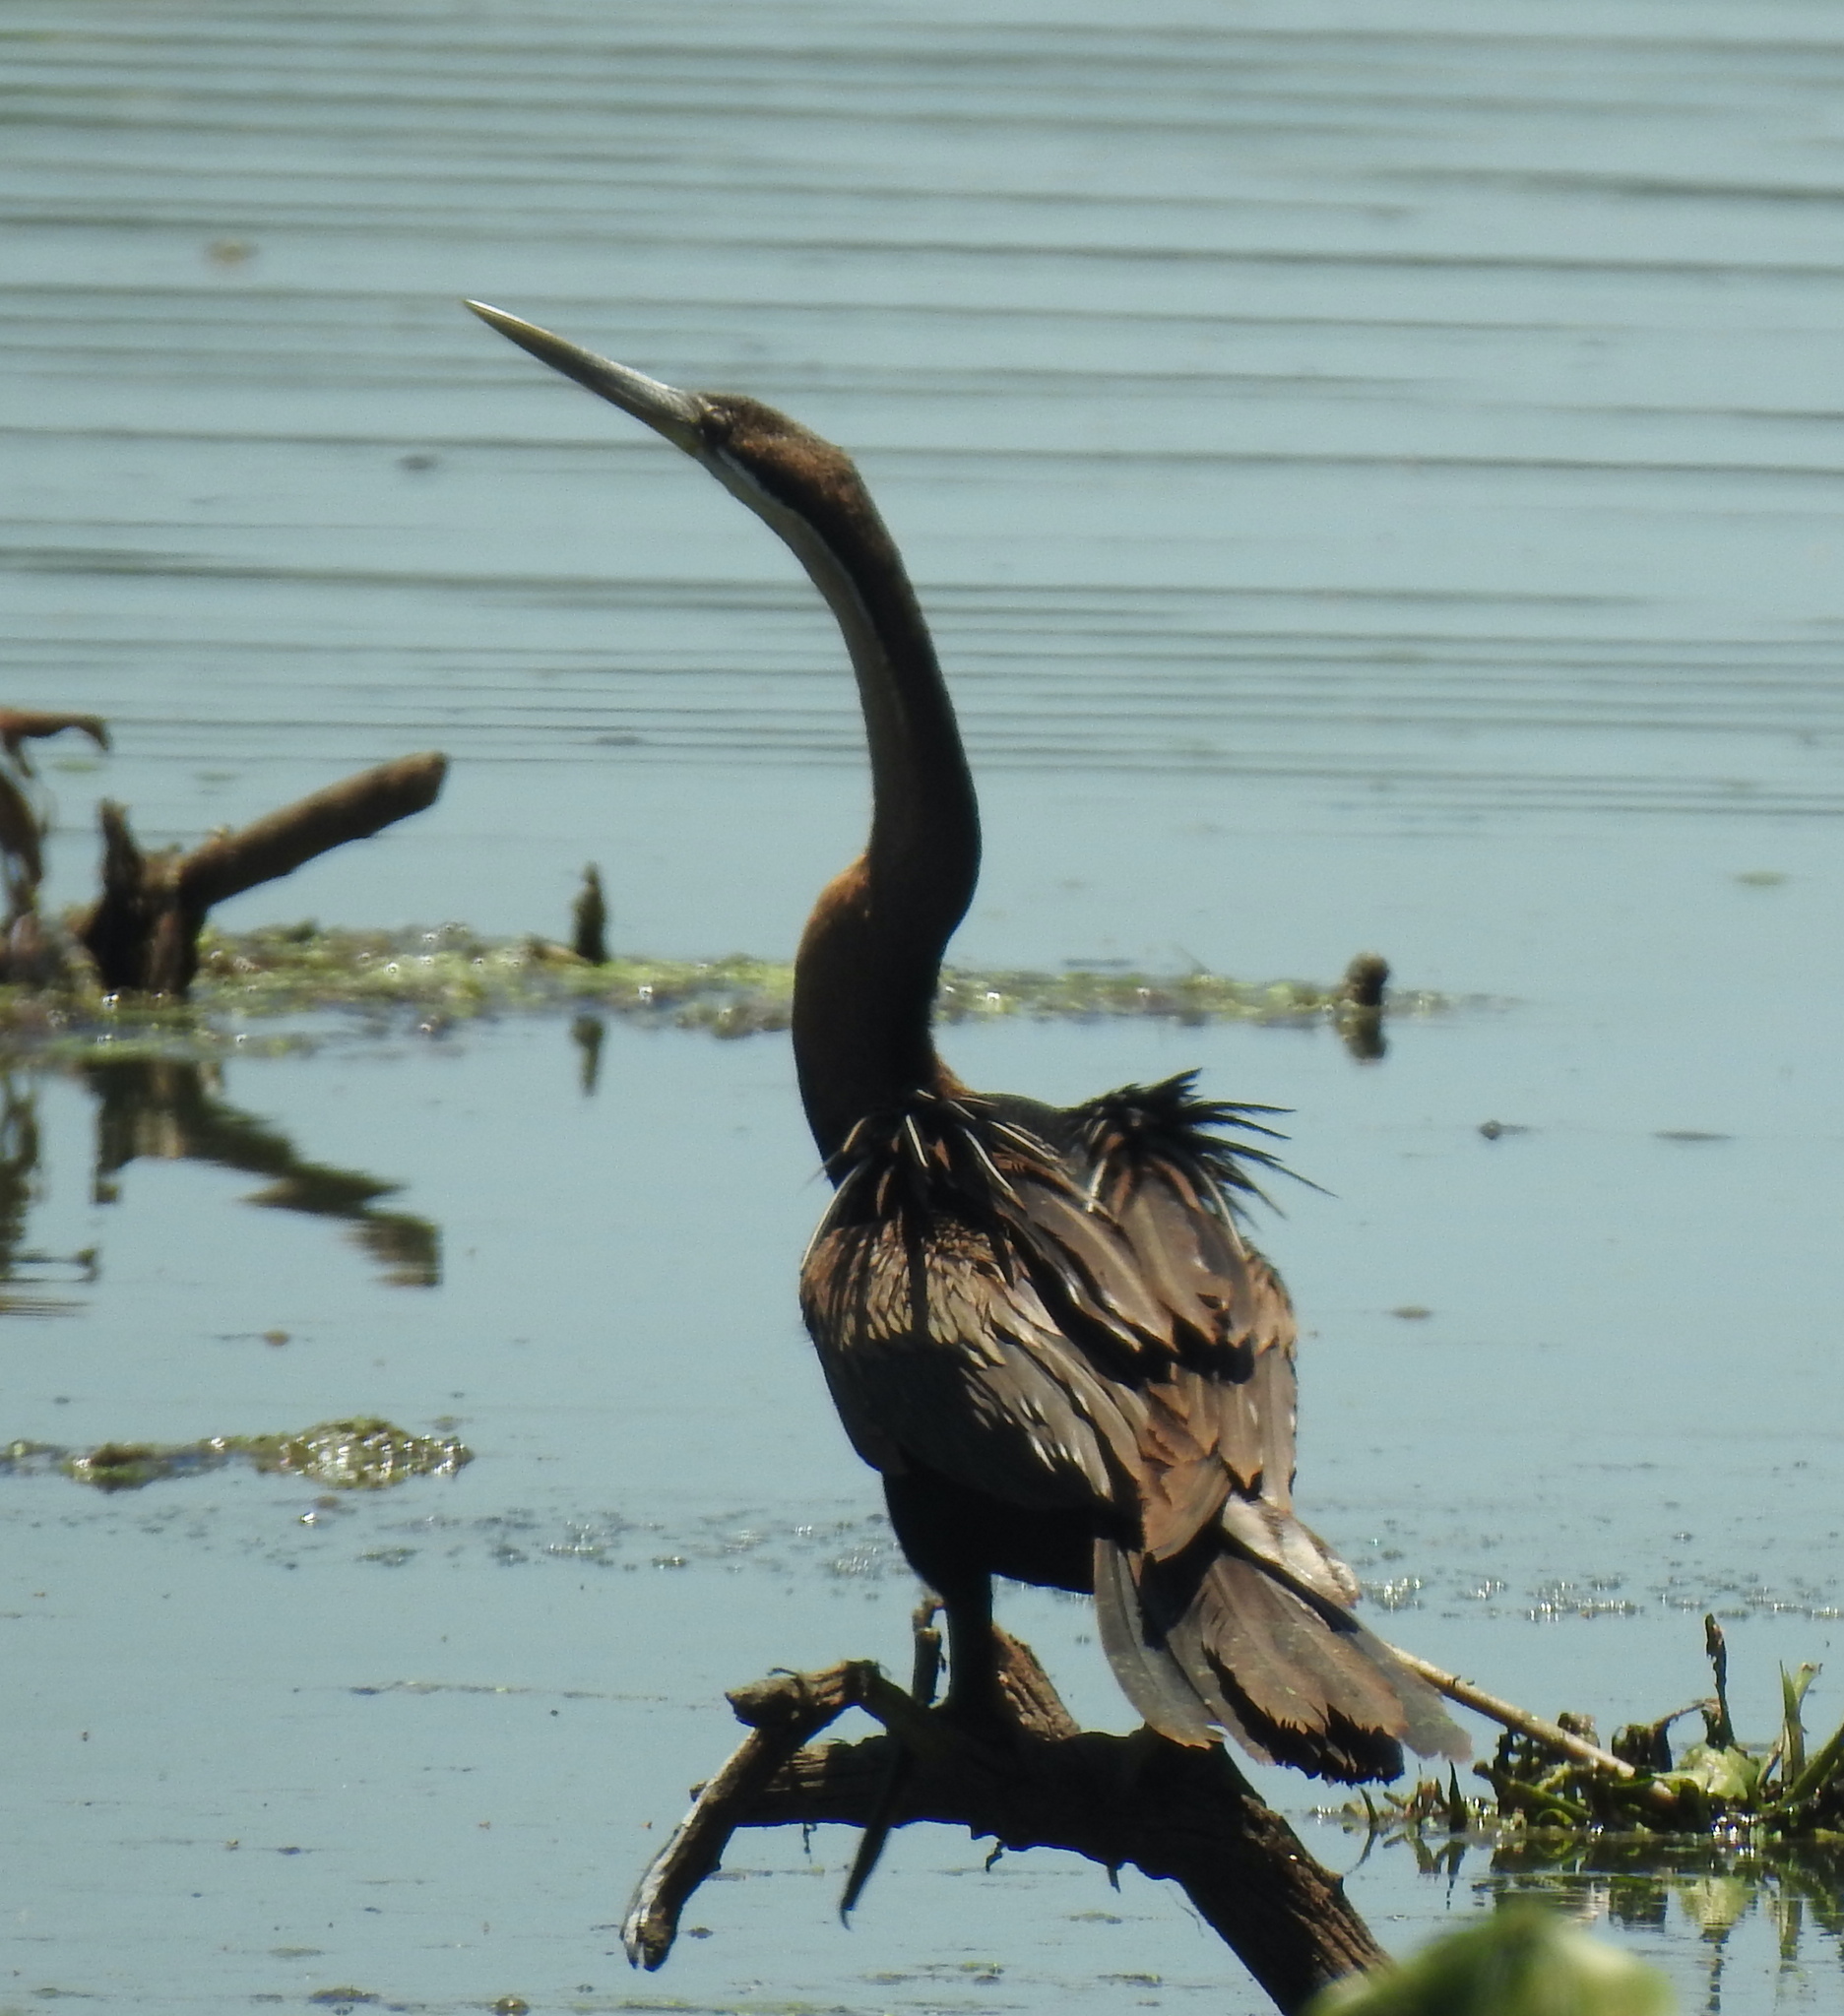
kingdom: Animalia
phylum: Chordata
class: Aves
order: Suliformes
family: Anhingidae
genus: Anhinga
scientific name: Anhinga rufa
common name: African darter
